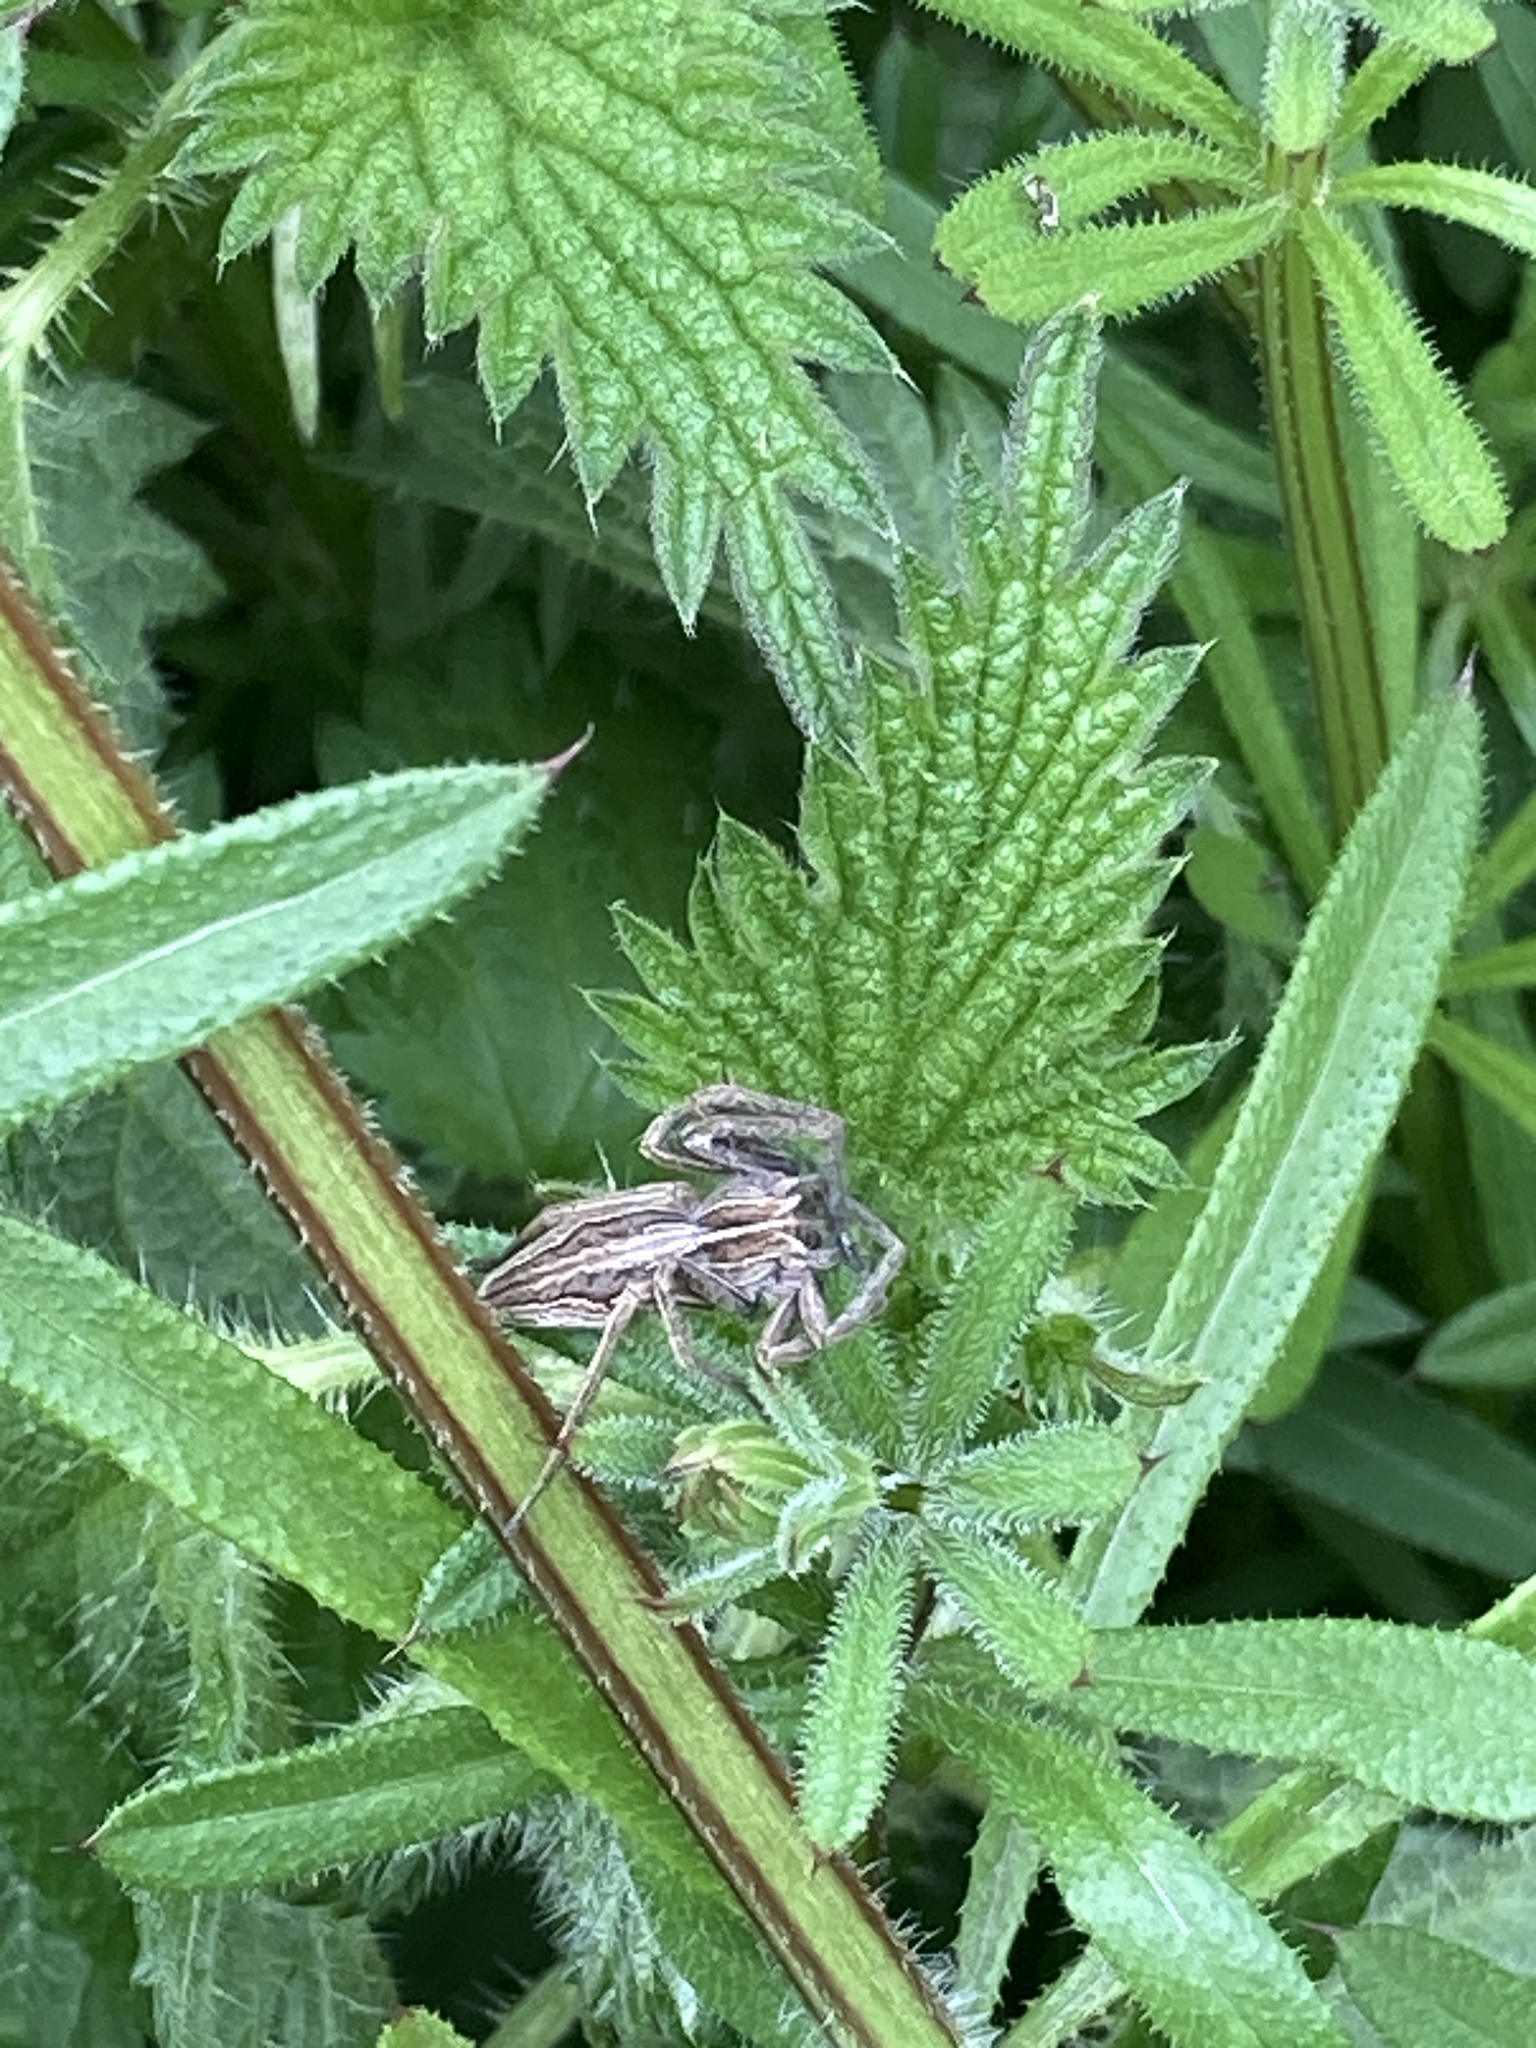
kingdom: Animalia
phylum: Arthropoda
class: Arachnida
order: Araneae
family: Pisauridae
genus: Pisaura
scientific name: Pisaura mirabilis
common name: Tent spider
